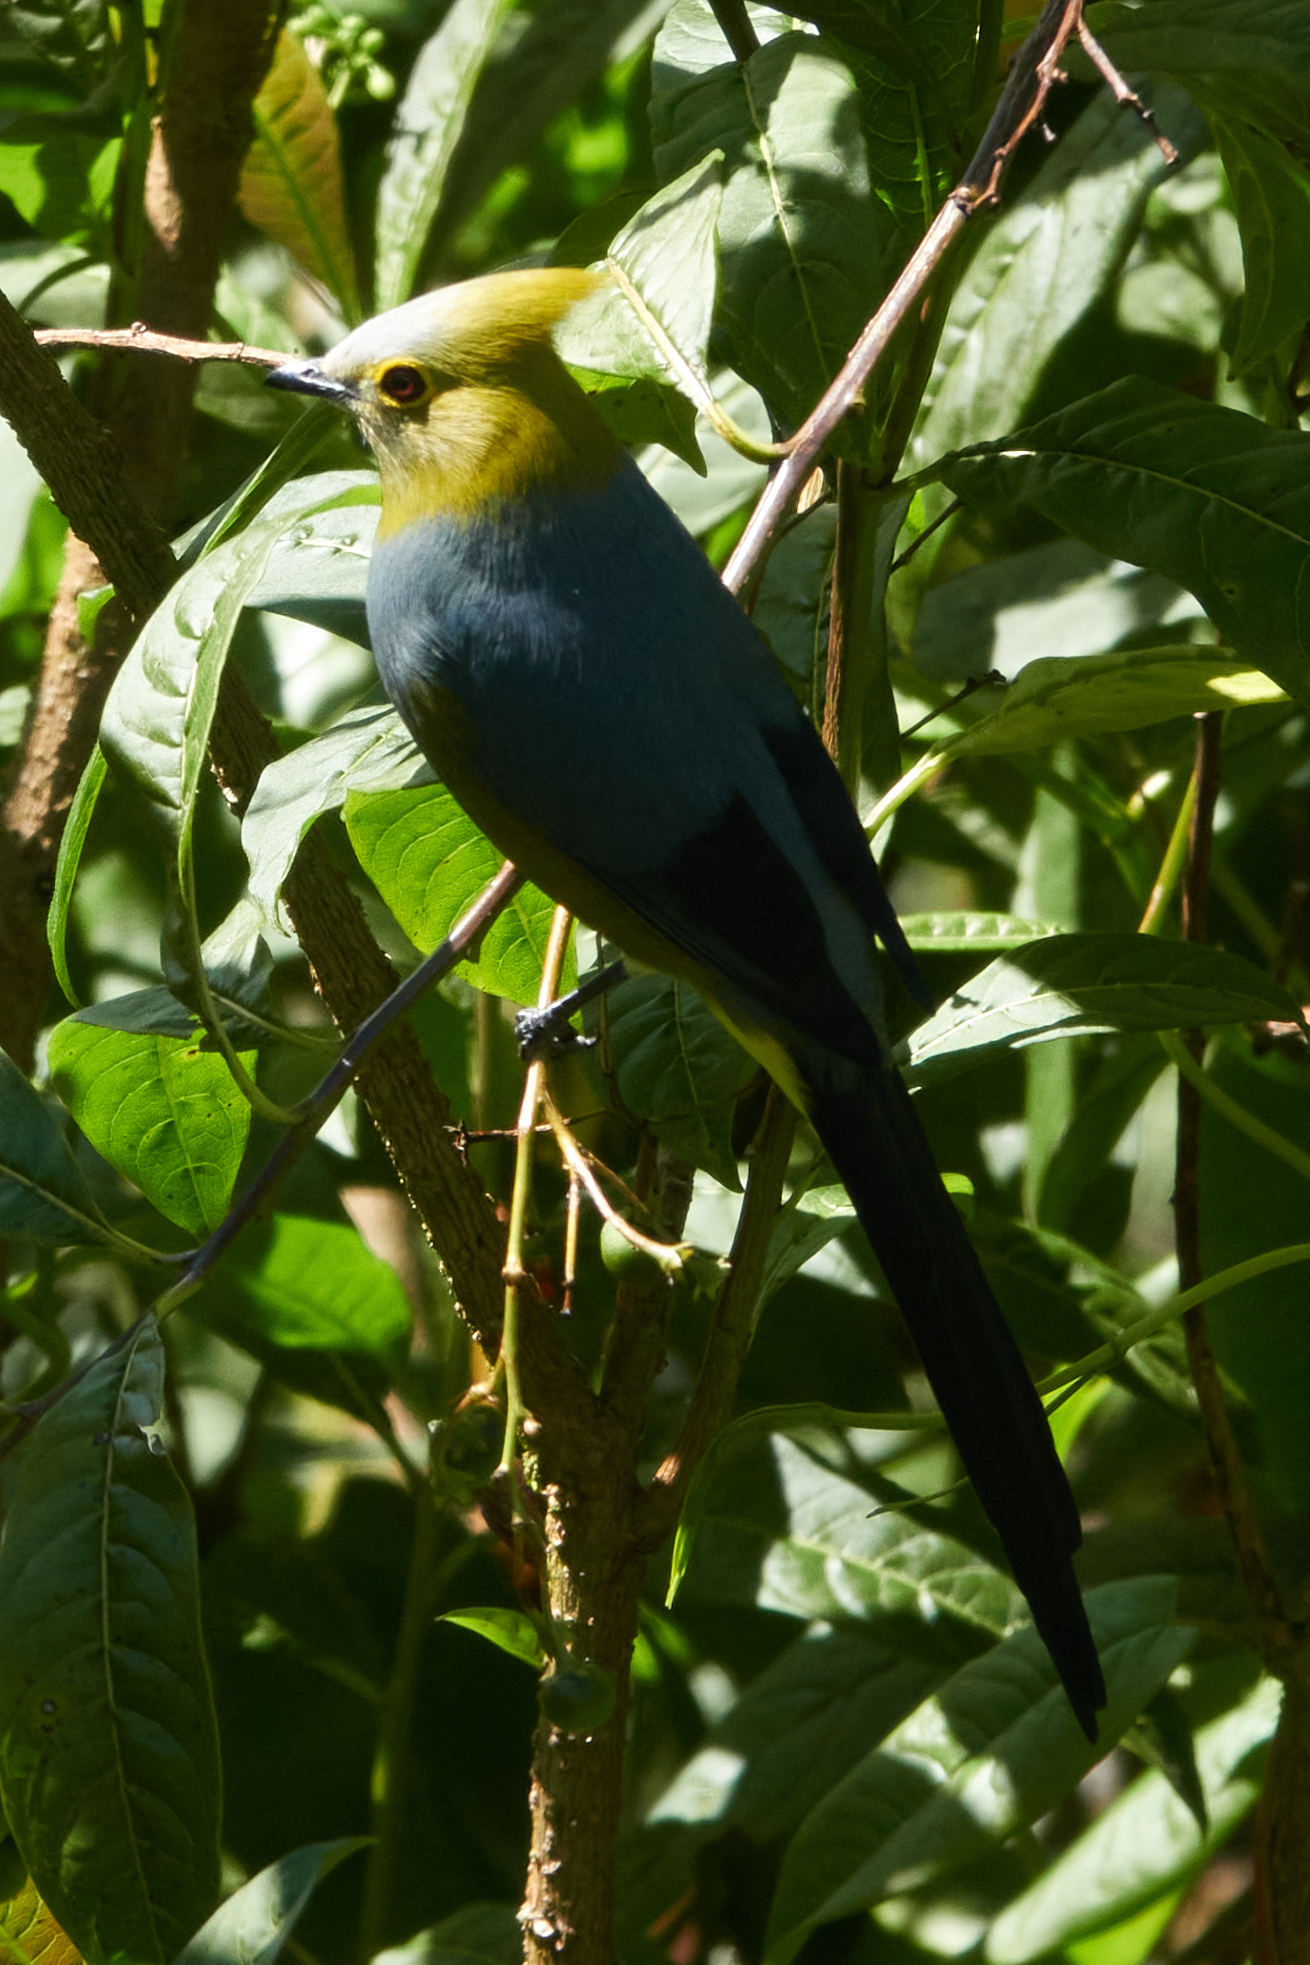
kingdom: Animalia
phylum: Chordata
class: Aves
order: Passeriformes
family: Ptilogonatidae
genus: Ptilogonys
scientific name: Ptilogonys caudatus
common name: Long-tailed silky-flycatcher
